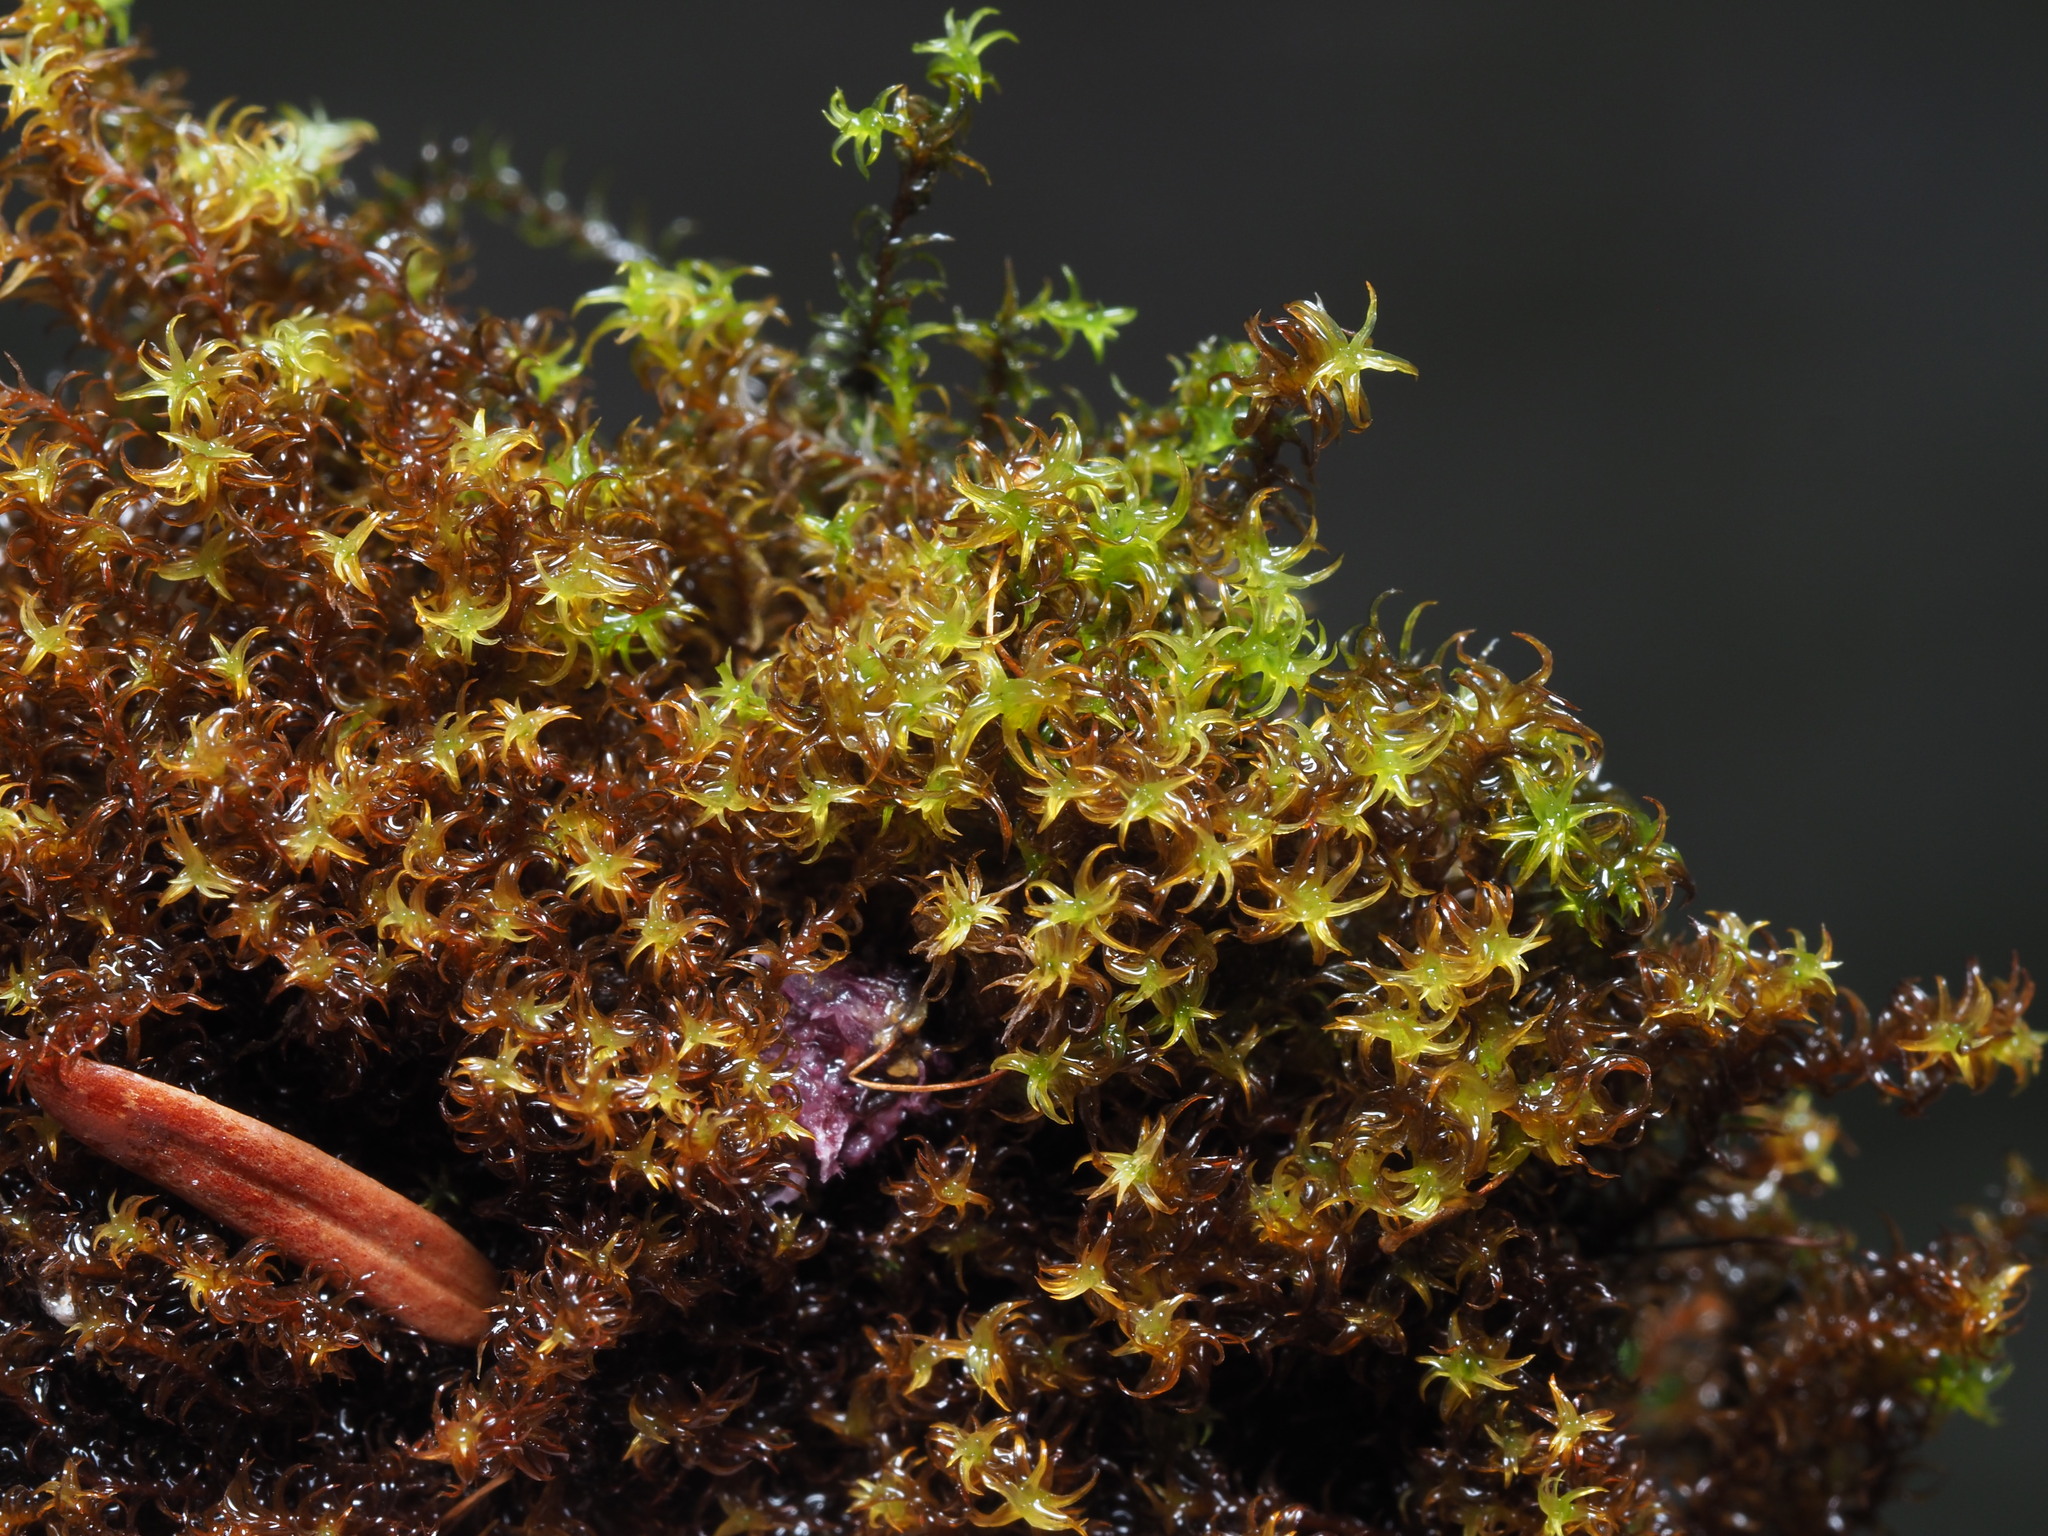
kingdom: Plantae
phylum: Bryophyta
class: Bryopsida
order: Pottiales
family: Pottiaceae
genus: Geheebia
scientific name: Geheebia ferruginea
